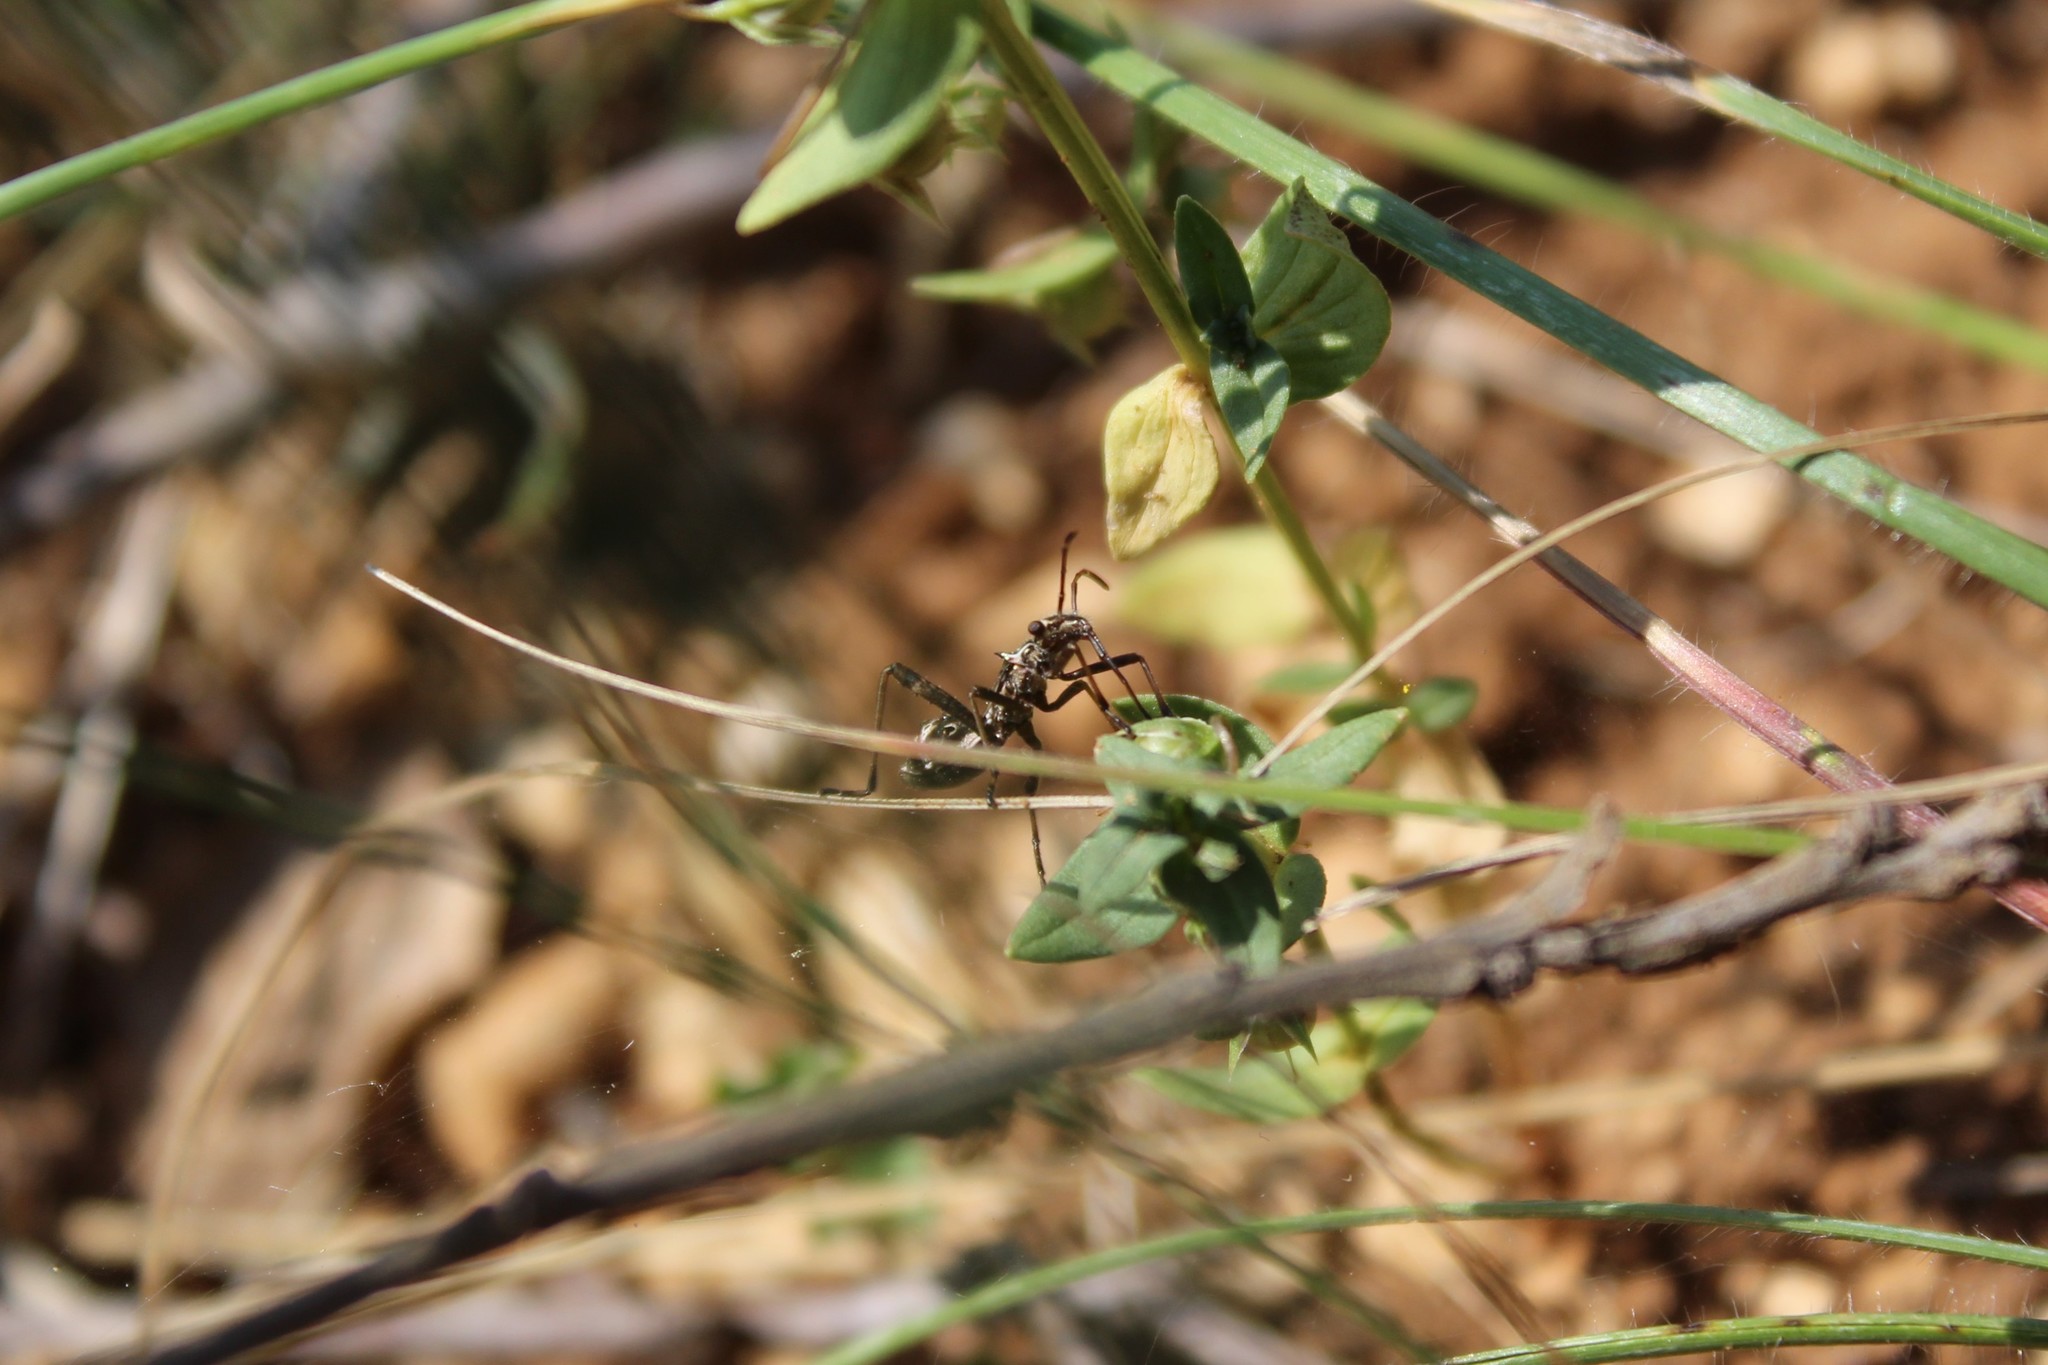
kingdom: Animalia
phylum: Arthropoda
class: Insecta
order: Hemiptera
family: Alydidae
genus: Camptopus
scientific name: Camptopus lateralis
